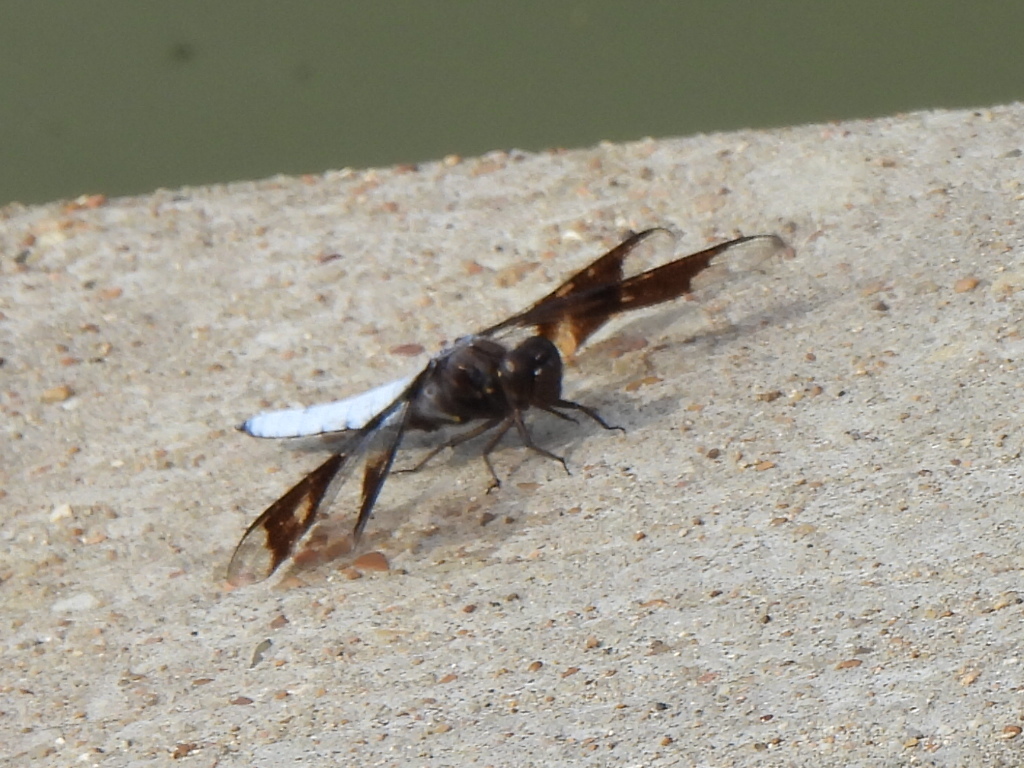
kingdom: Animalia
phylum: Arthropoda
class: Insecta
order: Odonata
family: Libellulidae
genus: Plathemis
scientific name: Plathemis lydia
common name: Common whitetail
